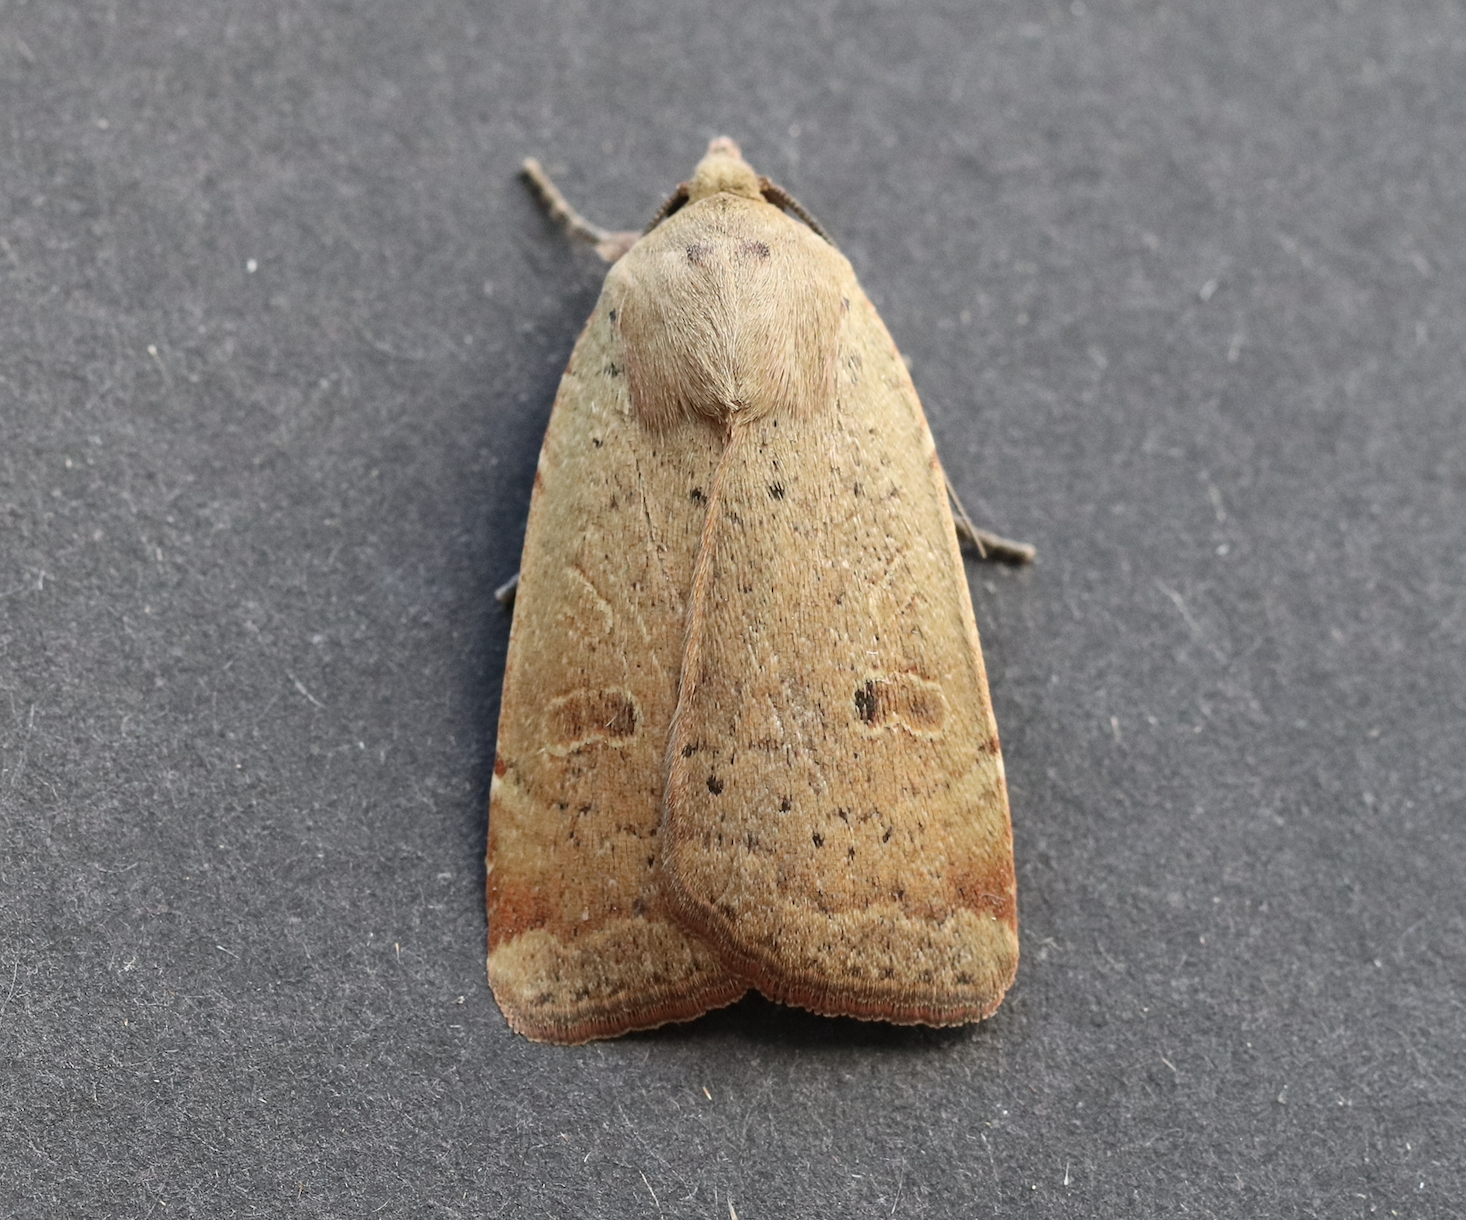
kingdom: Animalia
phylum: Arthropoda
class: Insecta
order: Lepidoptera
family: Noctuidae
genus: Noctua
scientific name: Noctua comes
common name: Lesser yellow underwing
